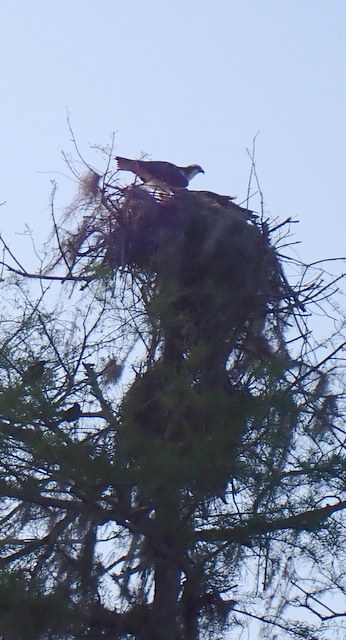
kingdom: Animalia
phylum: Chordata
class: Aves
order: Accipitriformes
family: Pandionidae
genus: Pandion
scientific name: Pandion haliaetus
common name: Osprey
